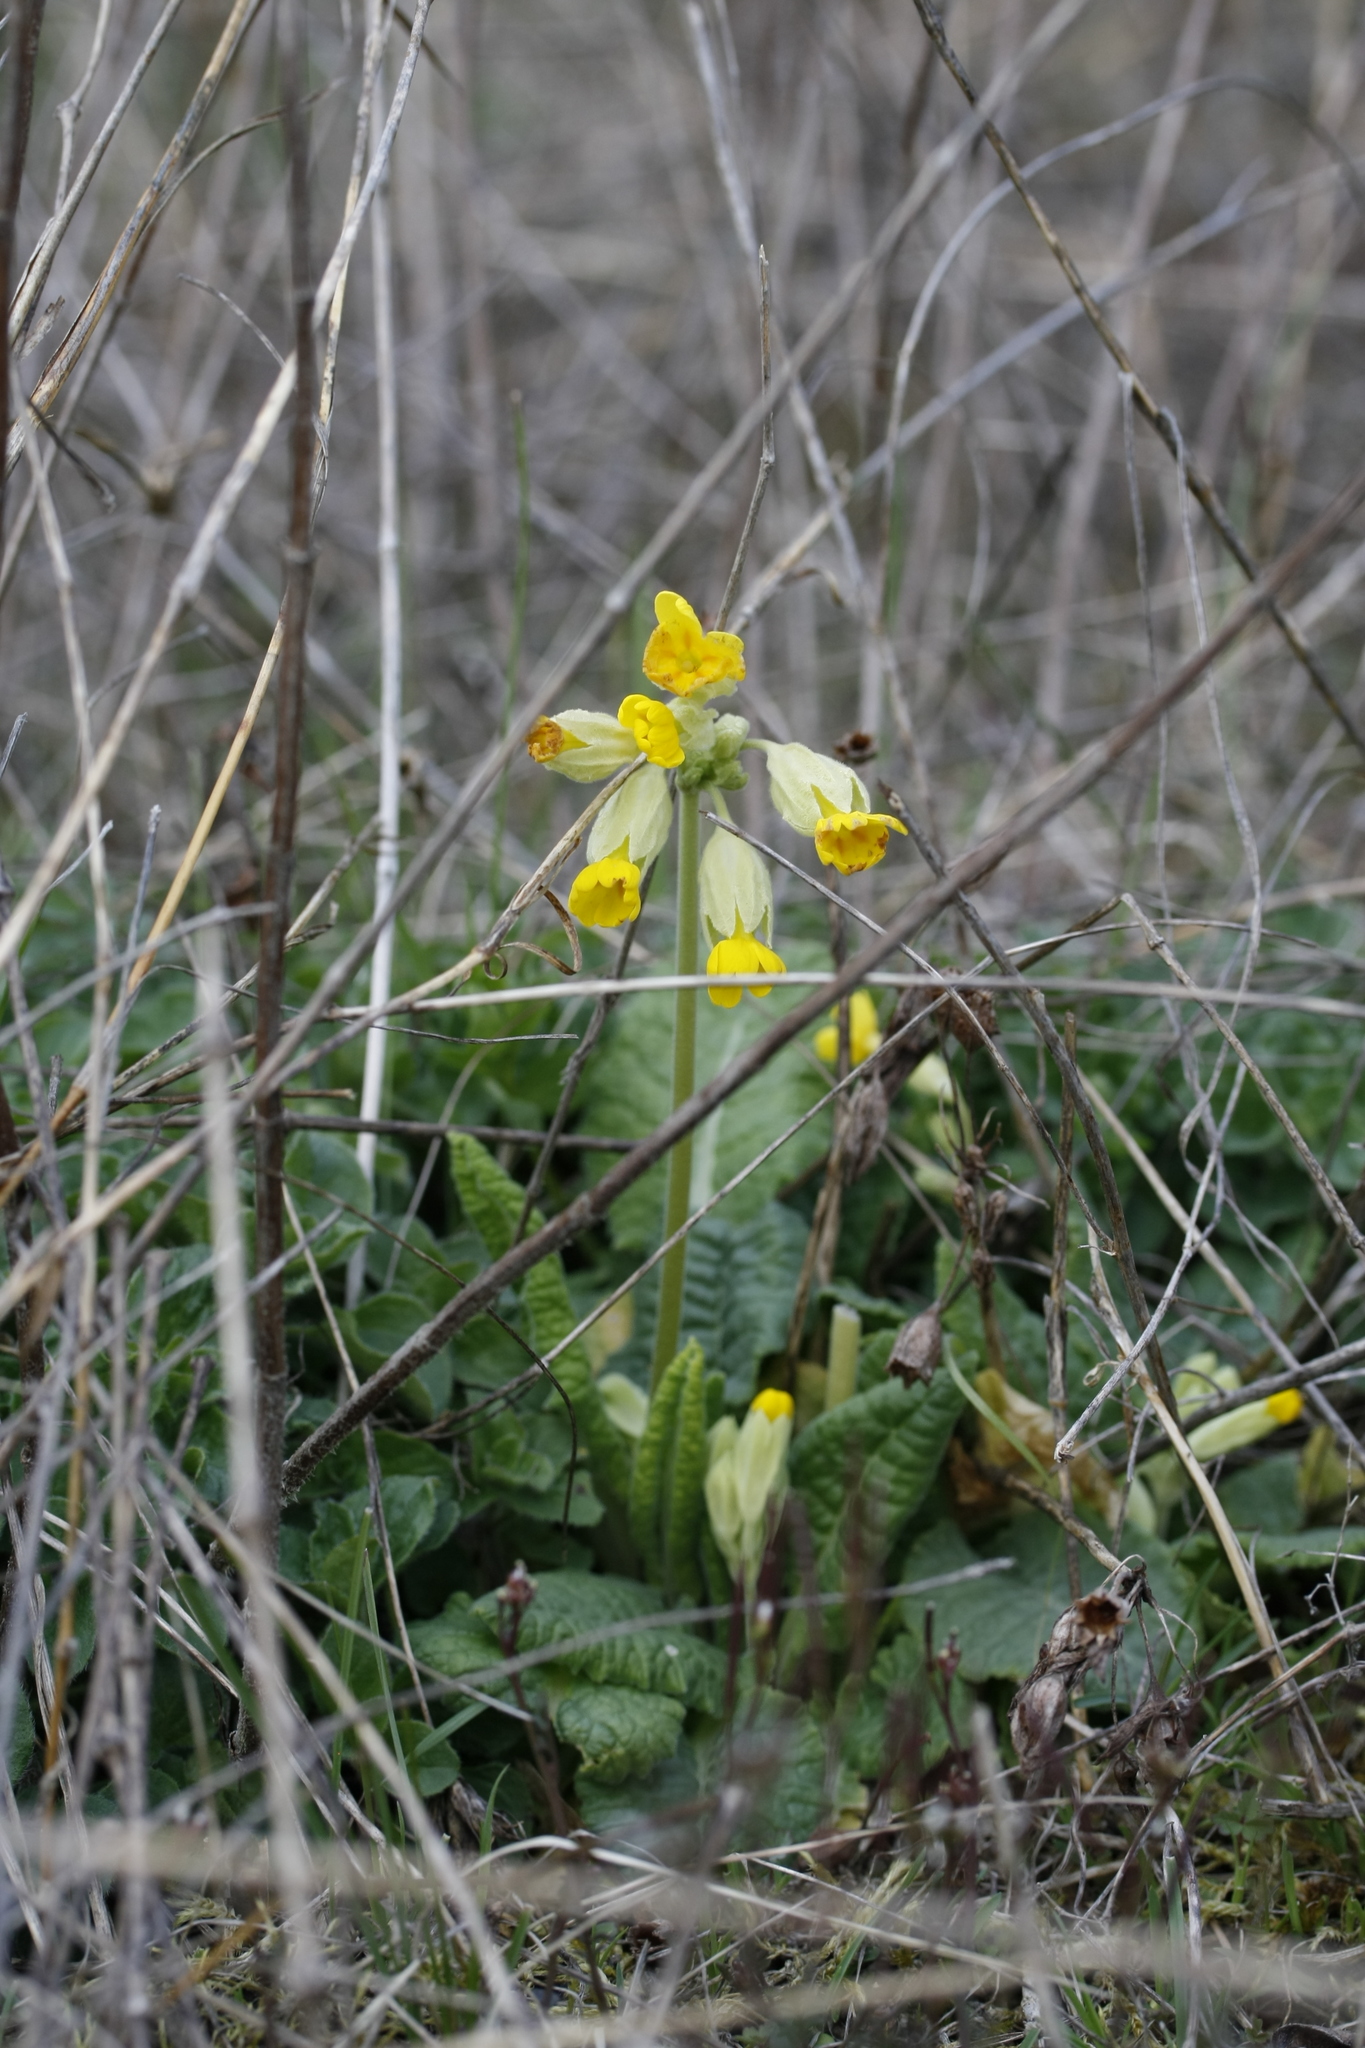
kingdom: Plantae
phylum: Tracheophyta
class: Magnoliopsida
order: Ericales
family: Primulaceae
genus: Primula
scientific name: Primula veris
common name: Cowslip
